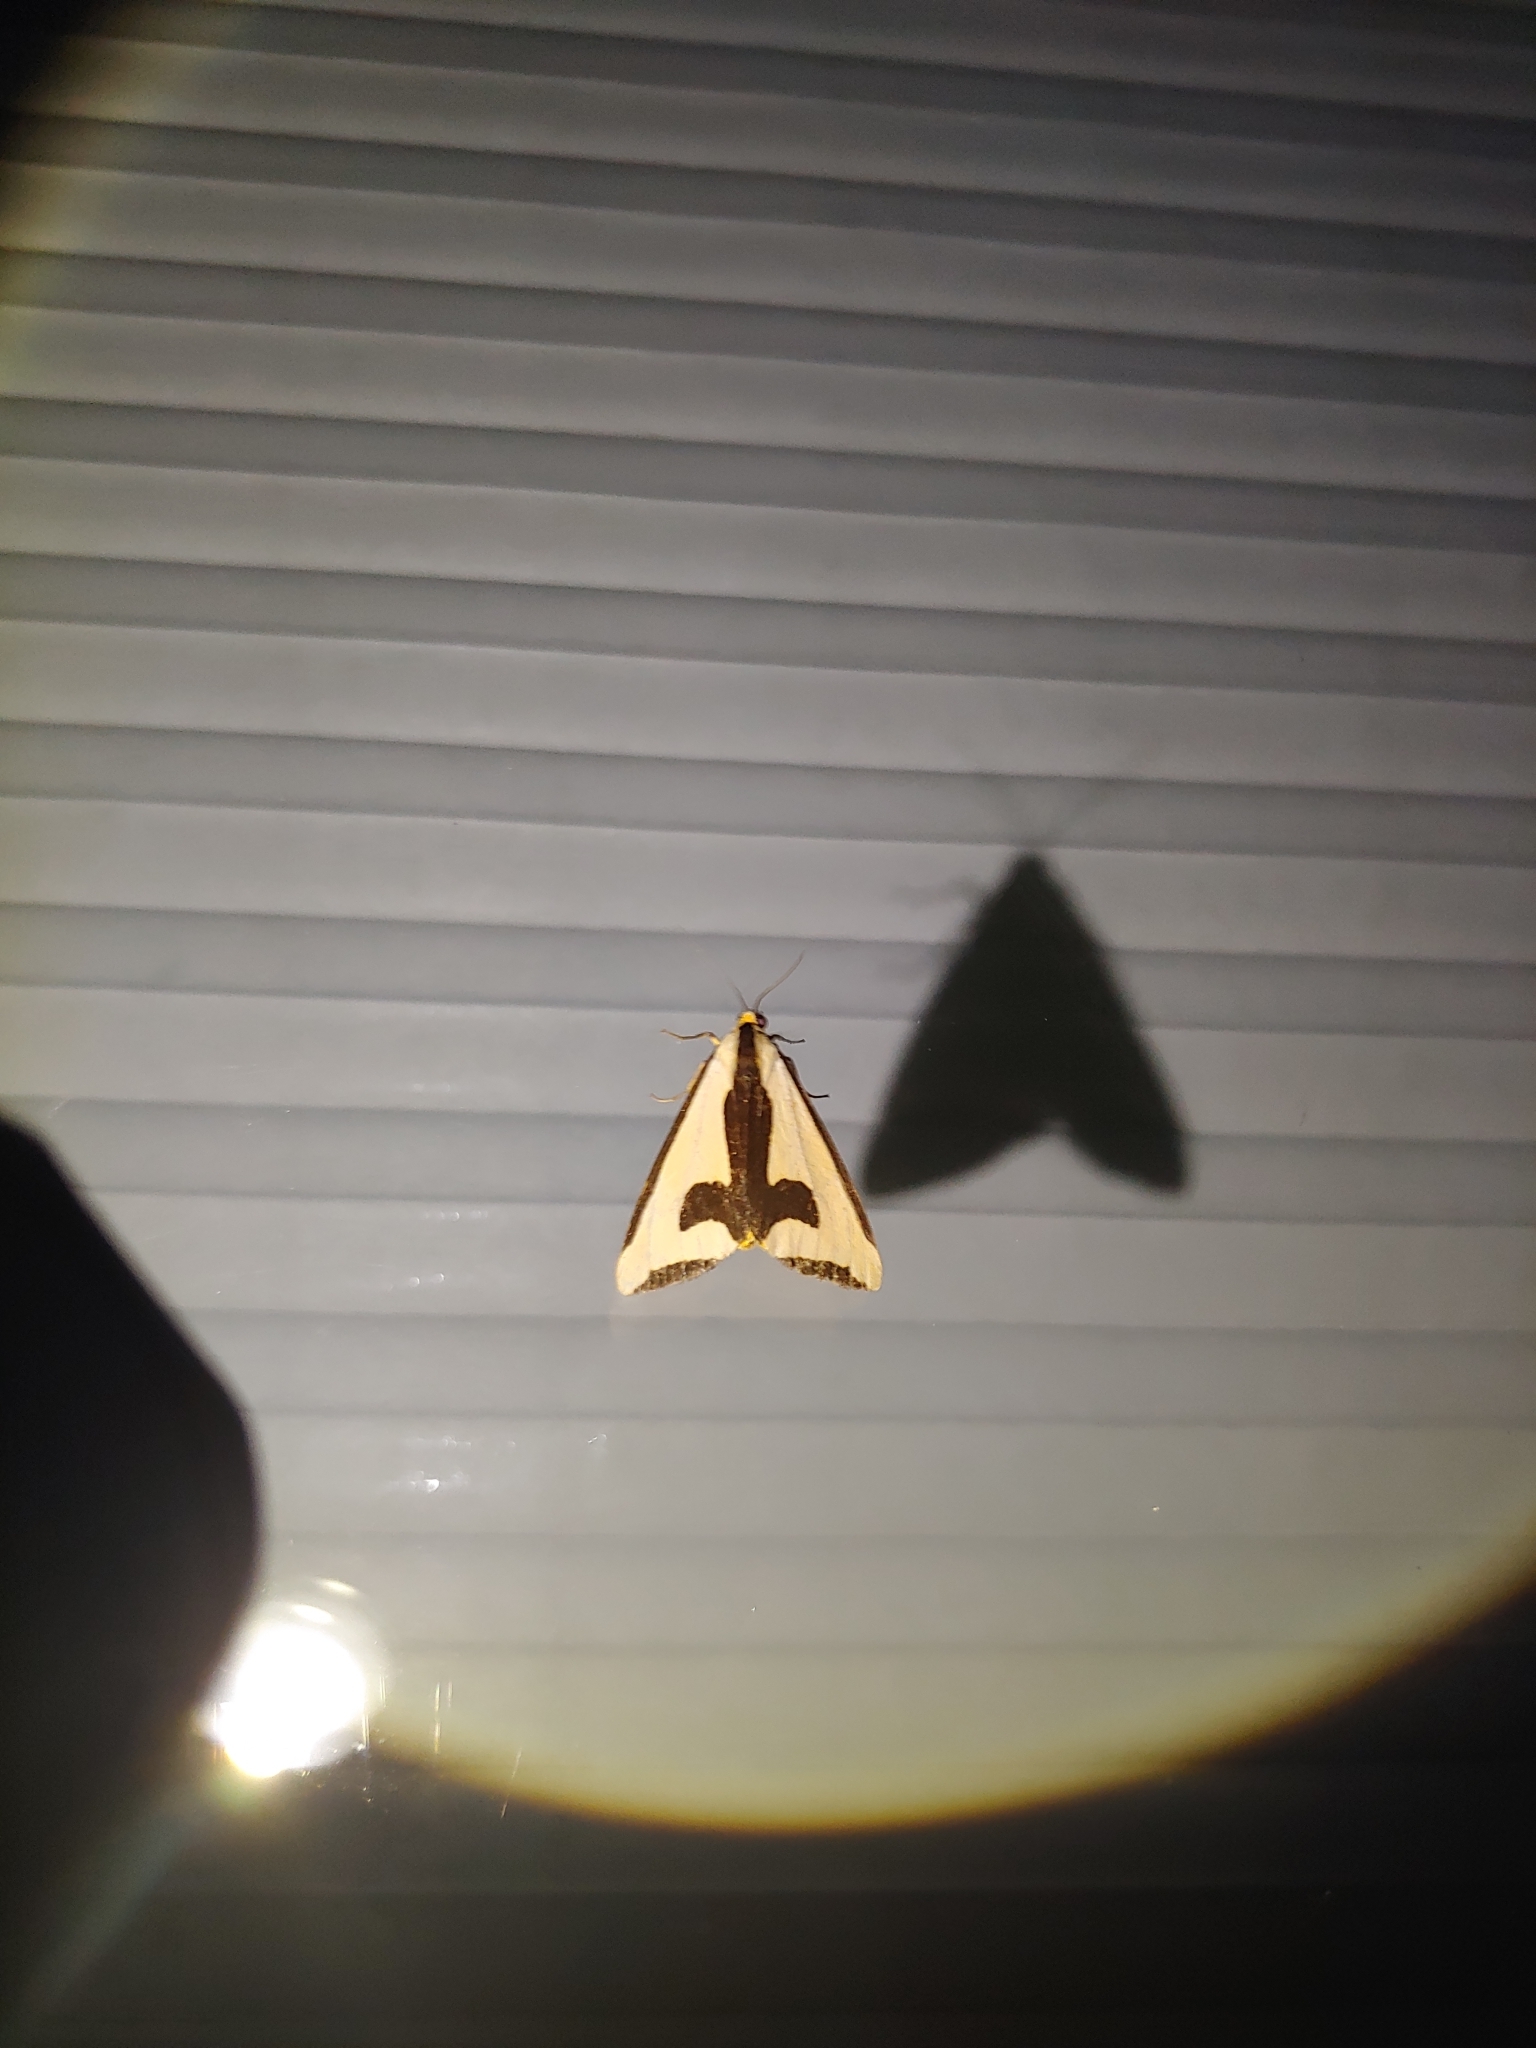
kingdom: Animalia
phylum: Arthropoda
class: Insecta
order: Lepidoptera
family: Erebidae
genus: Haploa
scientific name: Haploa clymene
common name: Clymene moth
